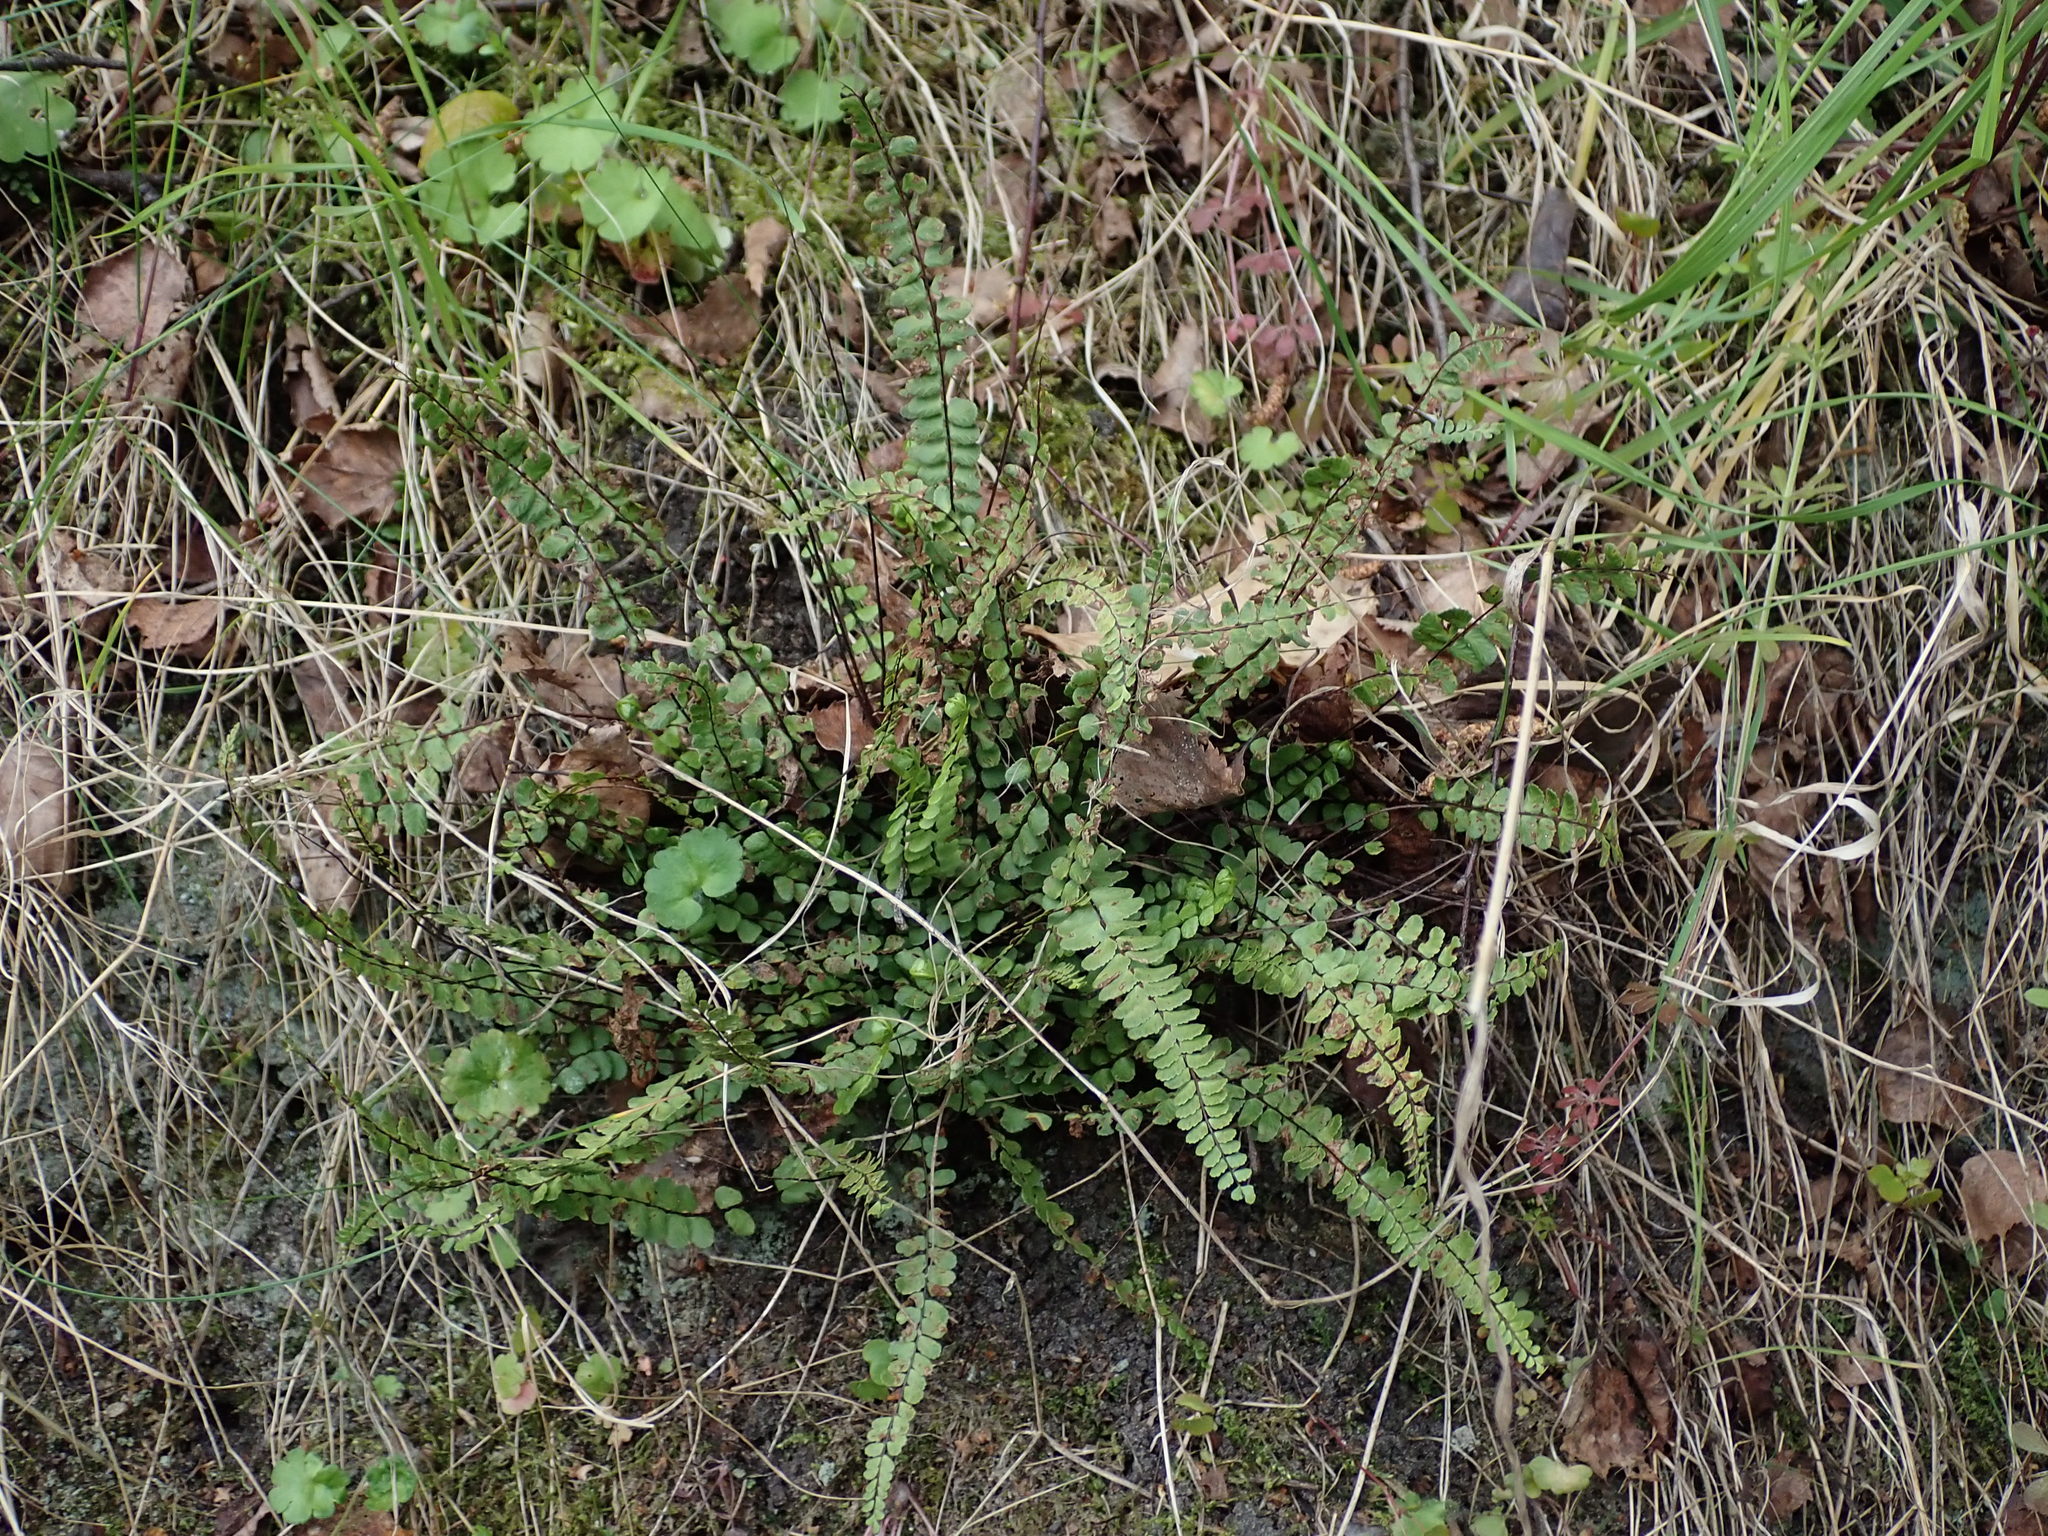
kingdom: Plantae
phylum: Tracheophyta
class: Polypodiopsida
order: Polypodiales
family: Aspleniaceae
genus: Asplenium
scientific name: Asplenium trichomanes
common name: Maidenhair spleenwort
